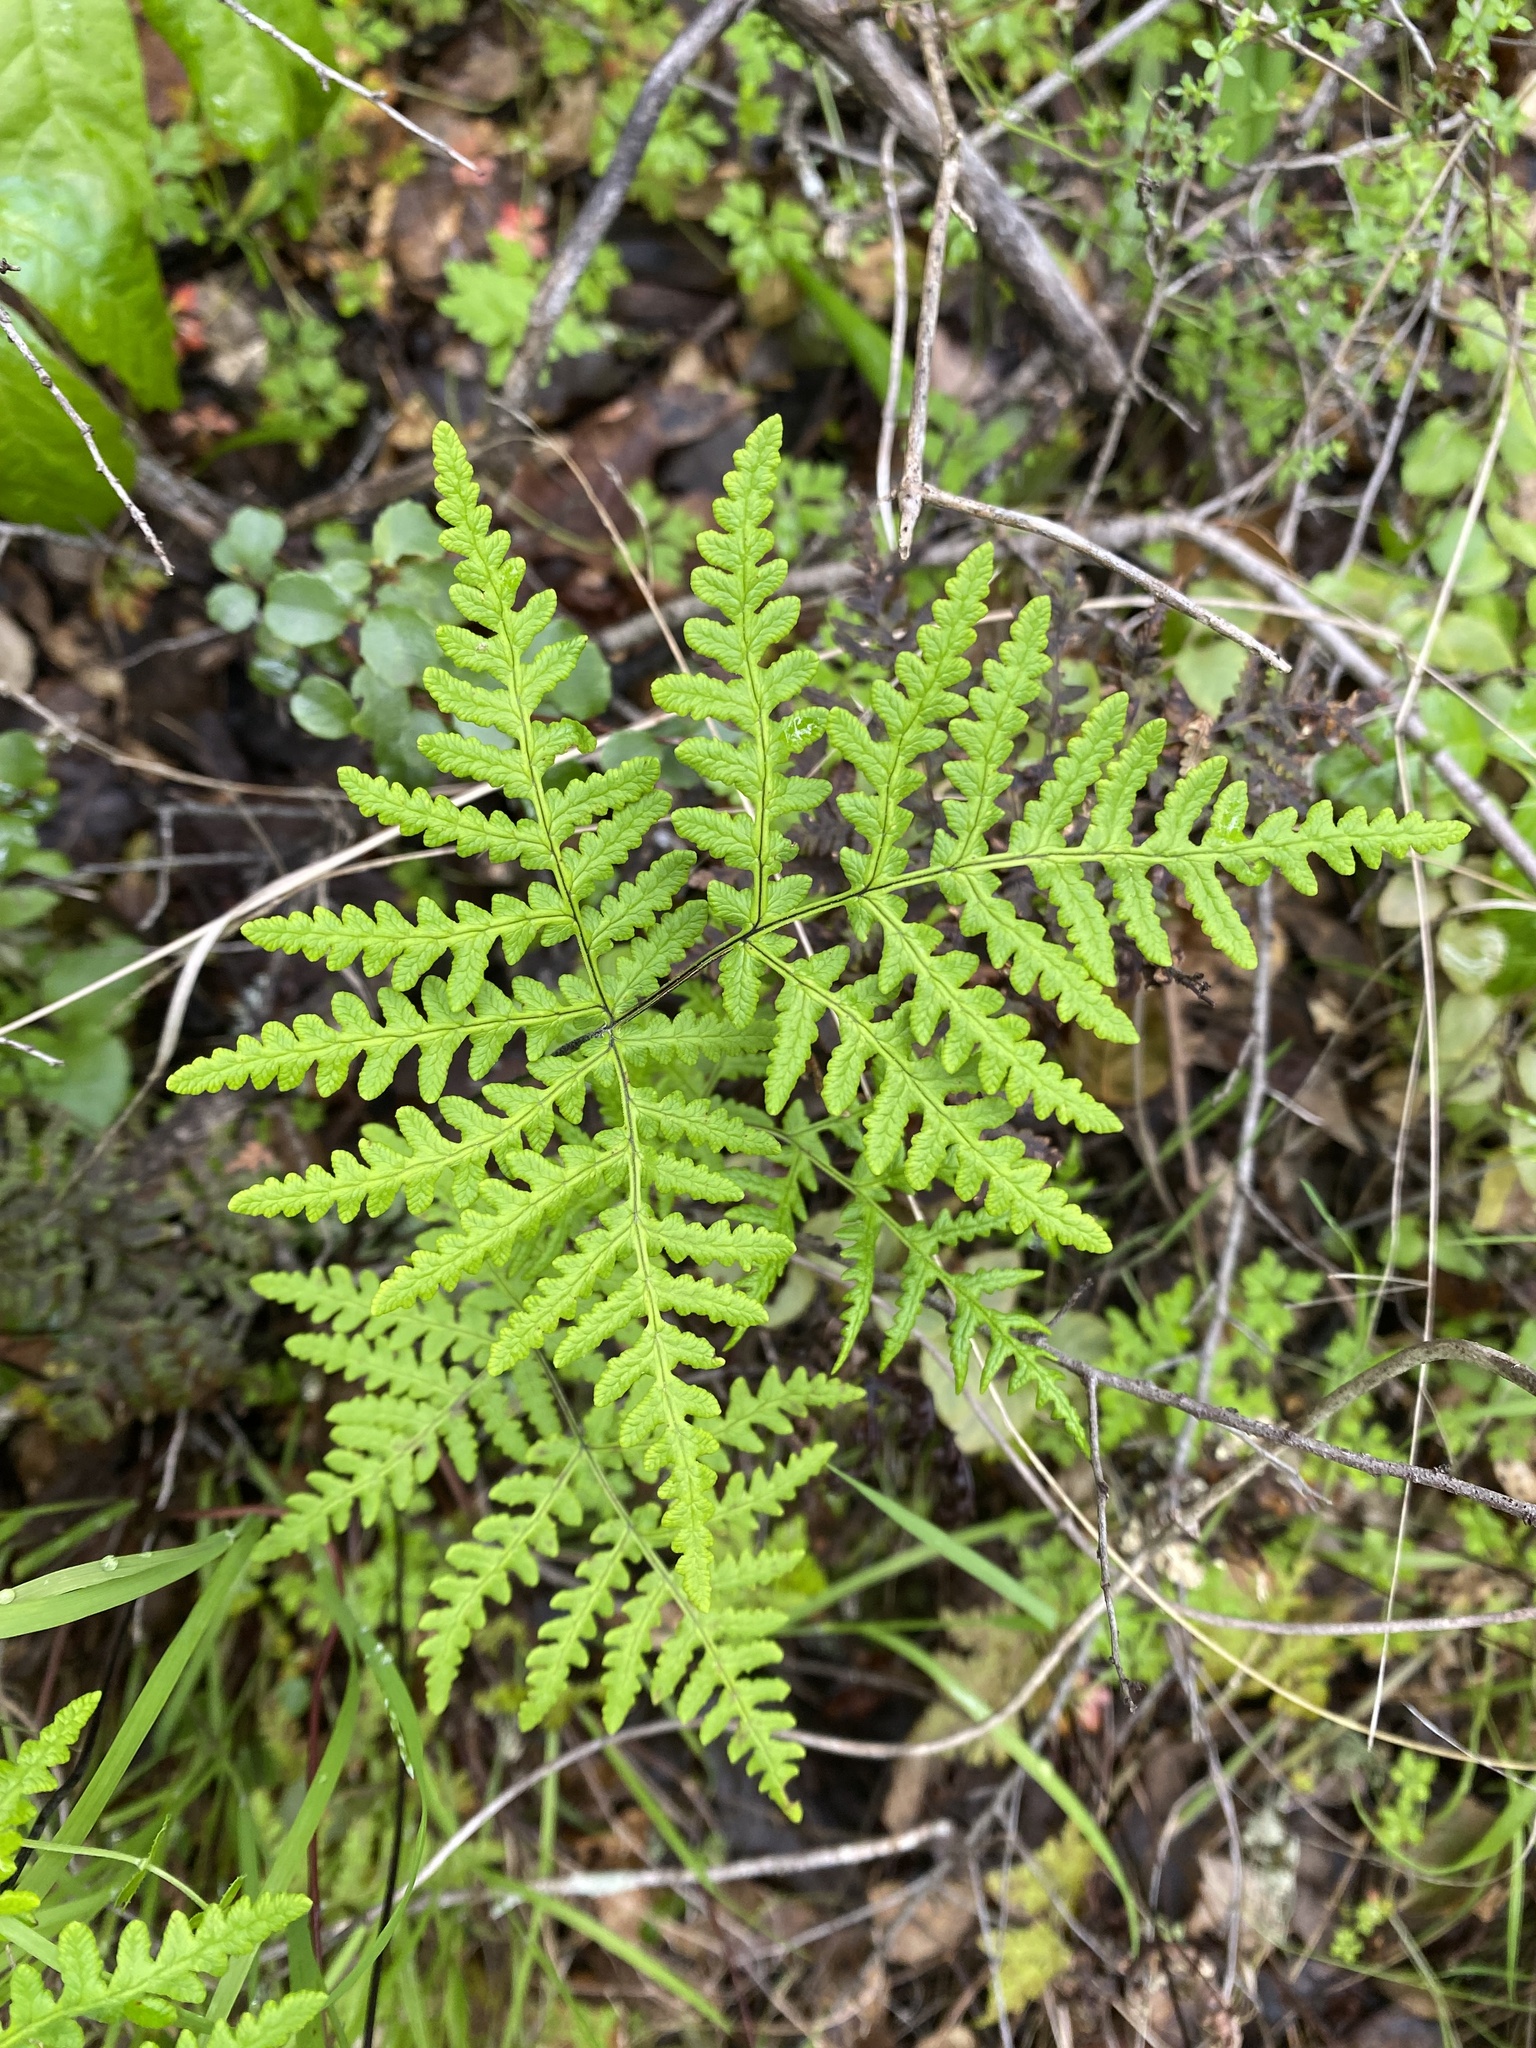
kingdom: Plantae
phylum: Tracheophyta
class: Polypodiopsida
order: Polypodiales
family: Pteridaceae
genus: Pentagramma
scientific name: Pentagramma triangularis
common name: Gold fern
